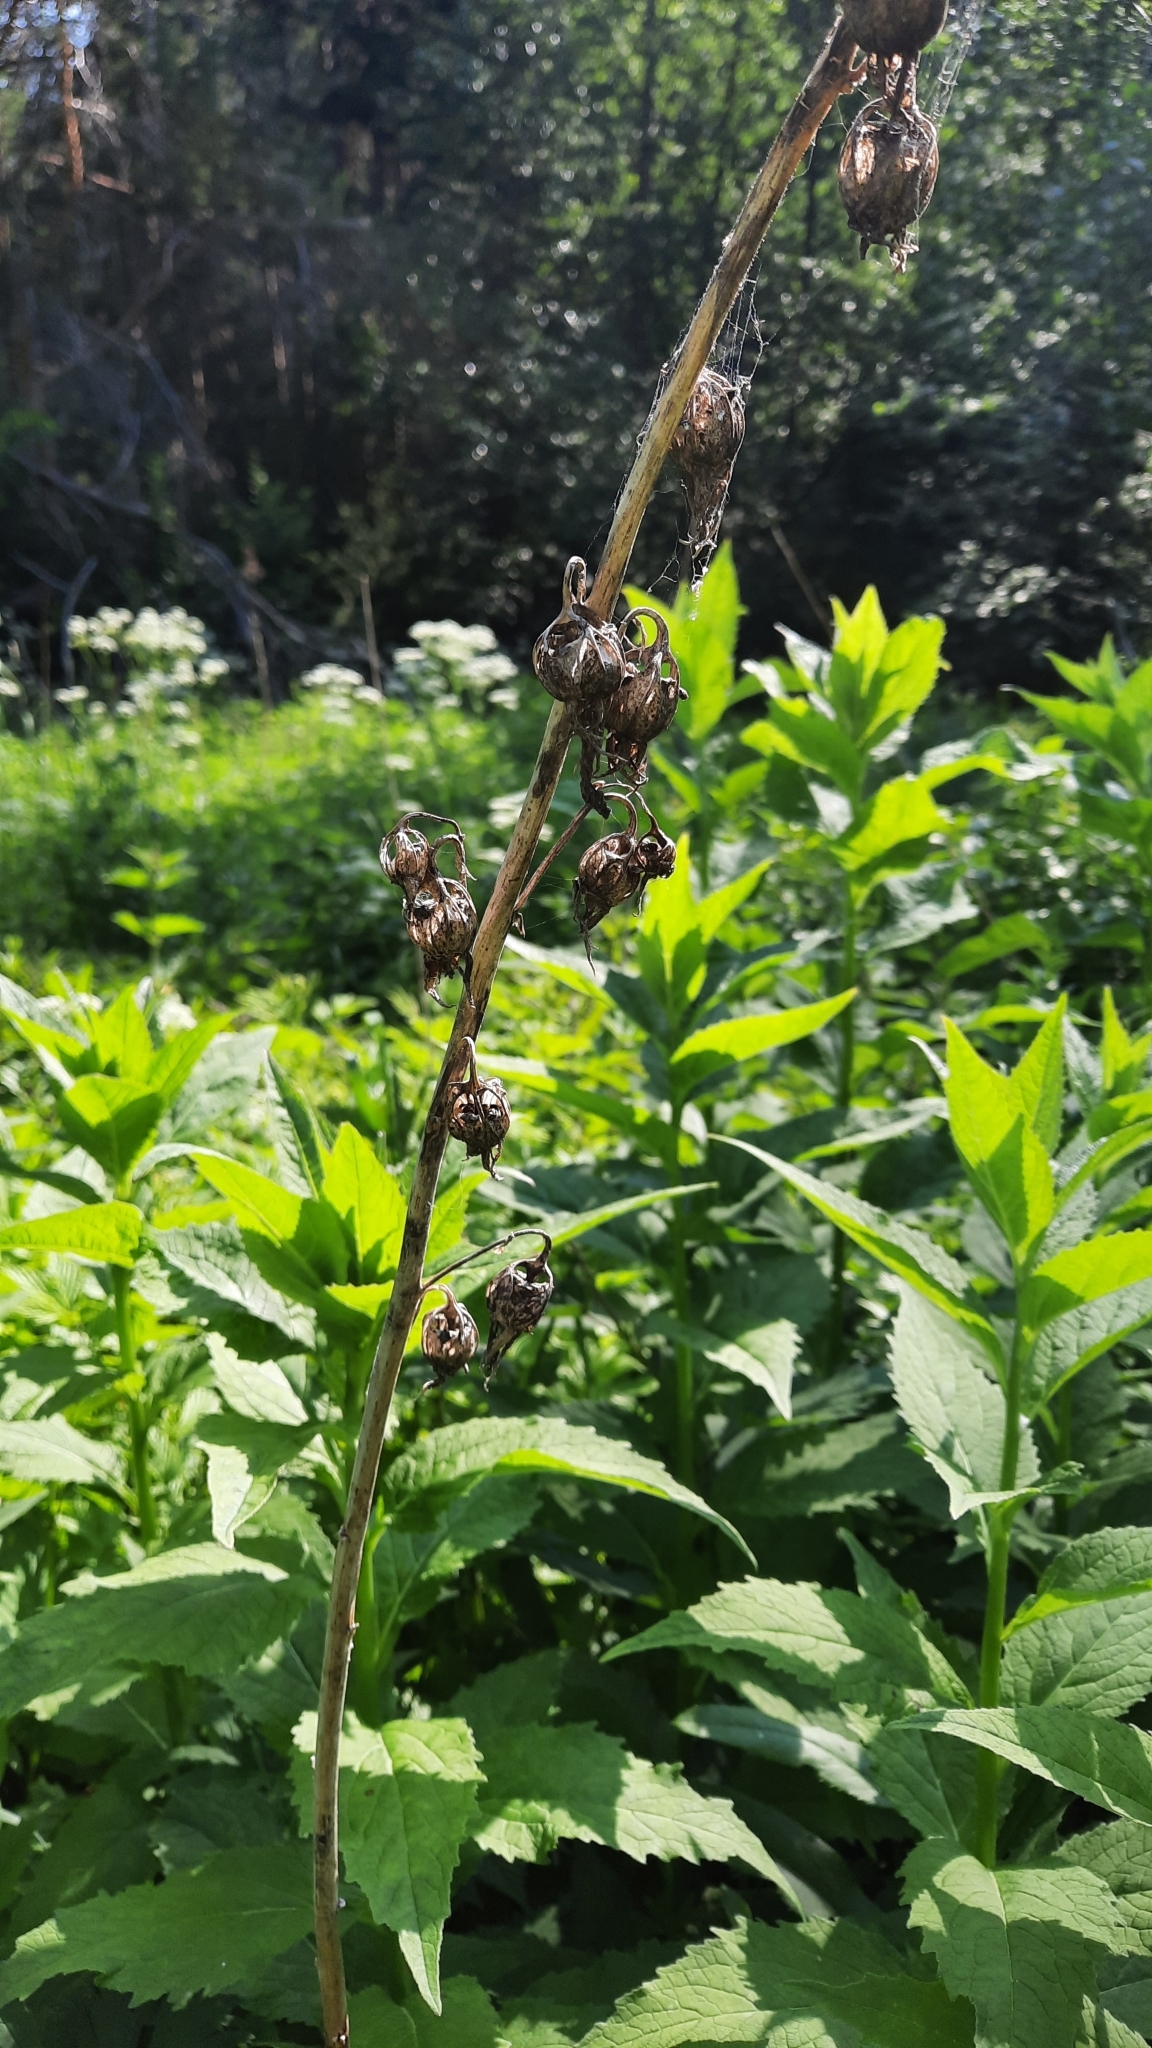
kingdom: Plantae
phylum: Tracheophyta
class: Magnoliopsida
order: Asterales
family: Campanulaceae
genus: Campanula
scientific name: Campanula latifolia
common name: Giant bellflower
